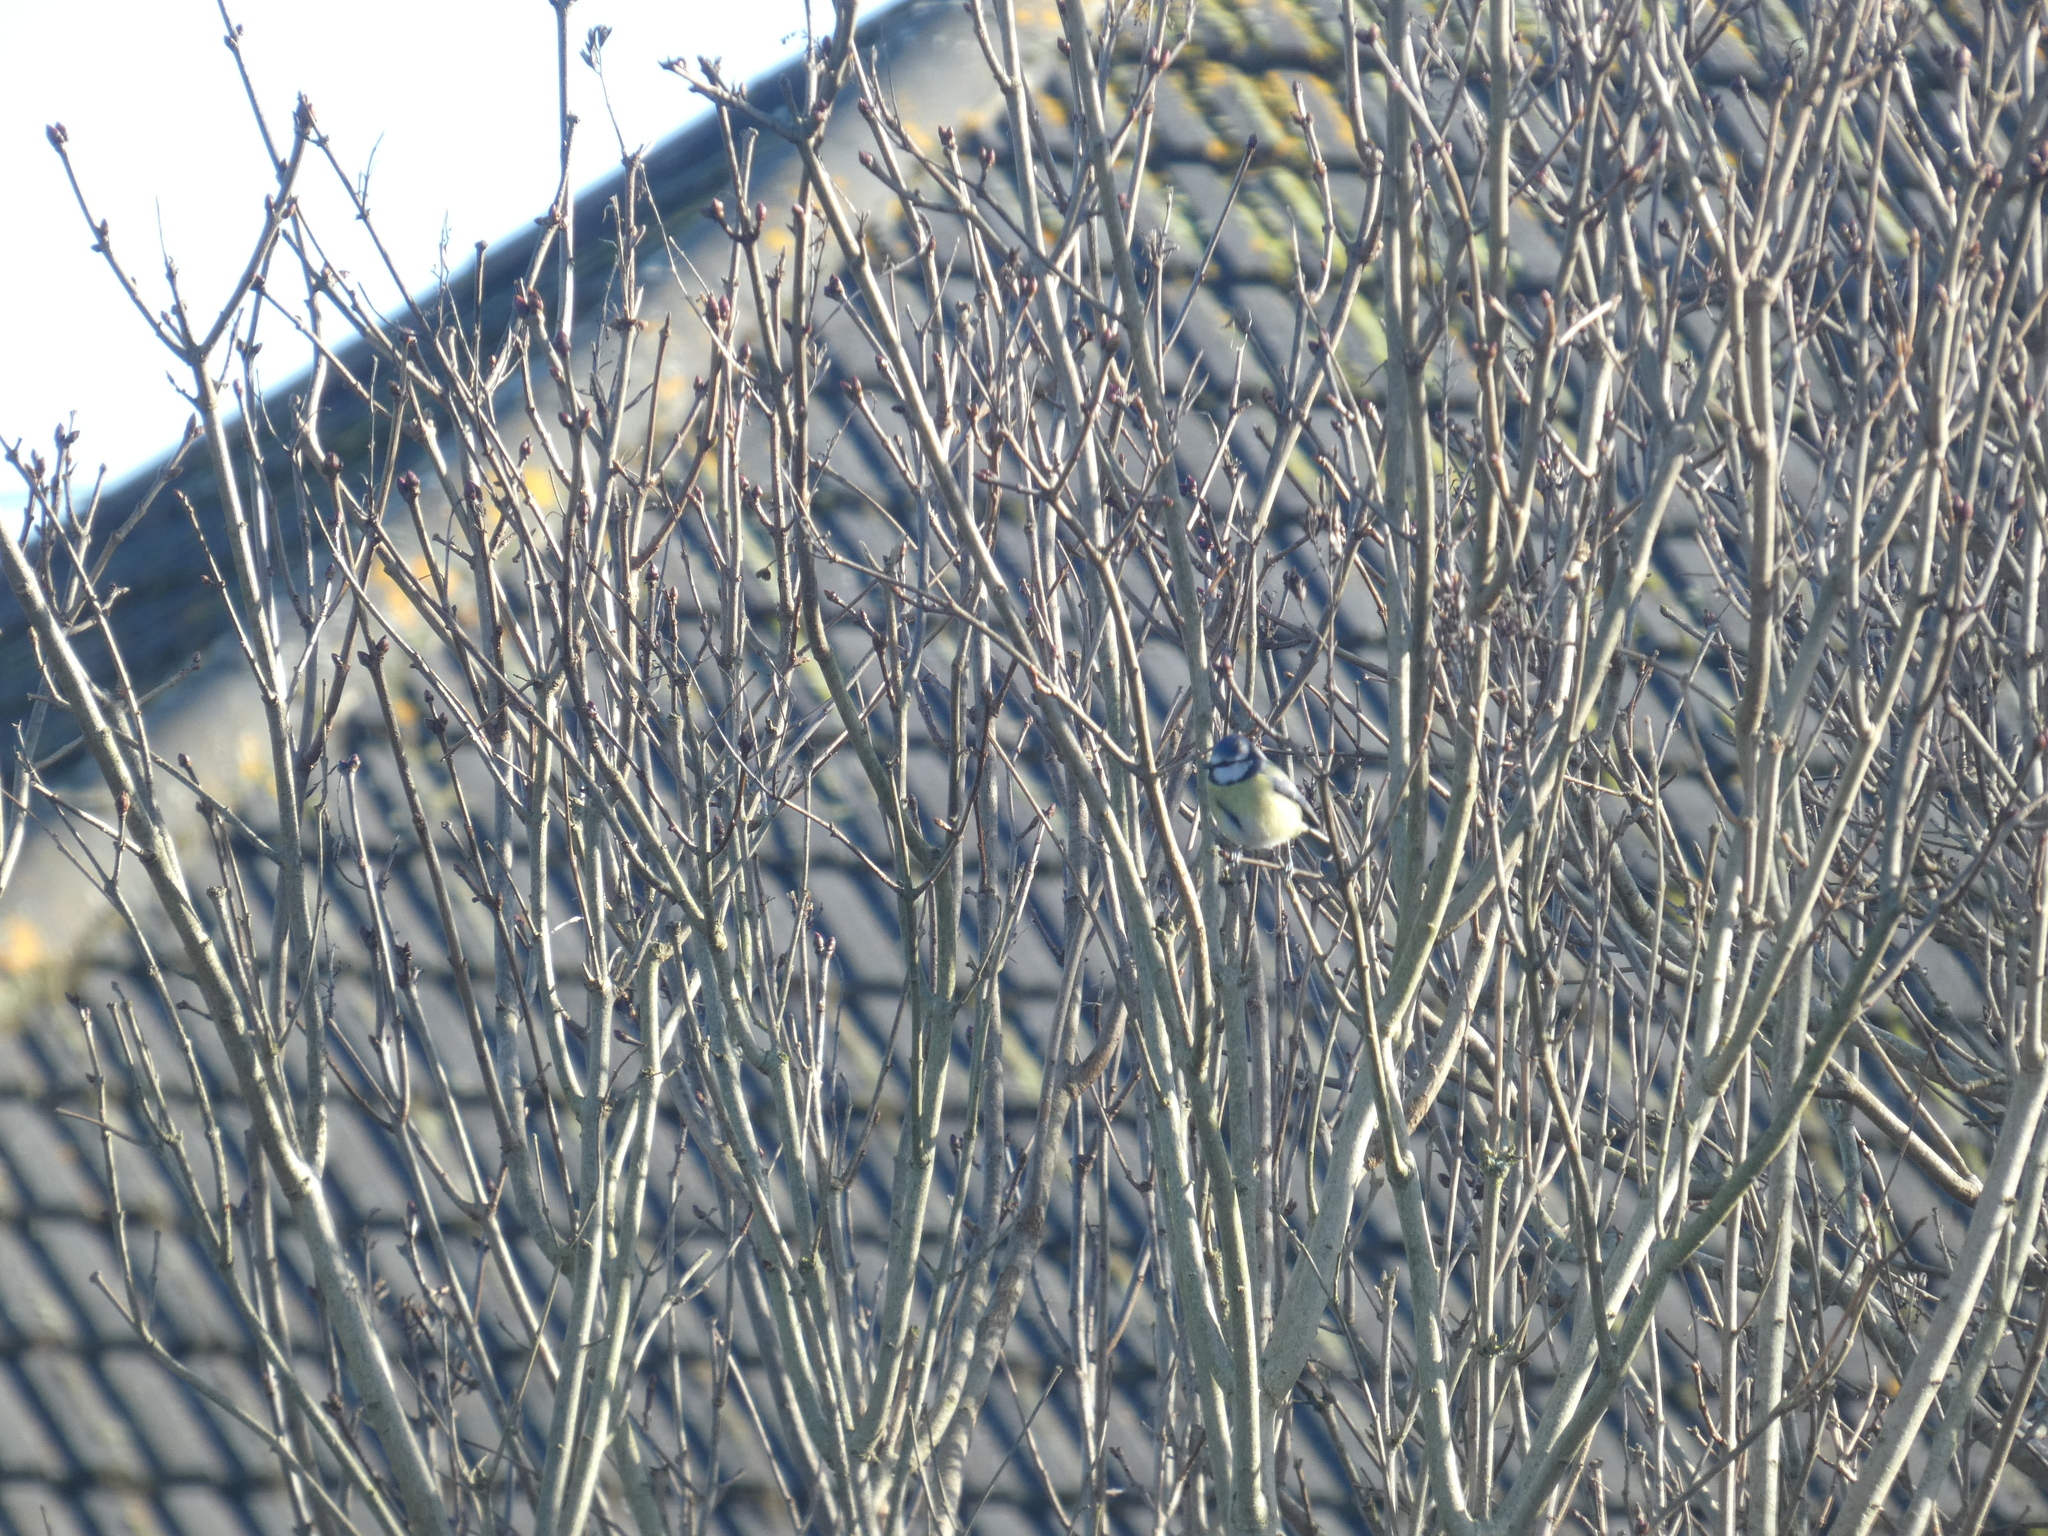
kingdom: Animalia
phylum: Chordata
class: Aves
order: Passeriformes
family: Paridae
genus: Cyanistes
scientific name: Cyanistes caeruleus
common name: Eurasian blue tit
